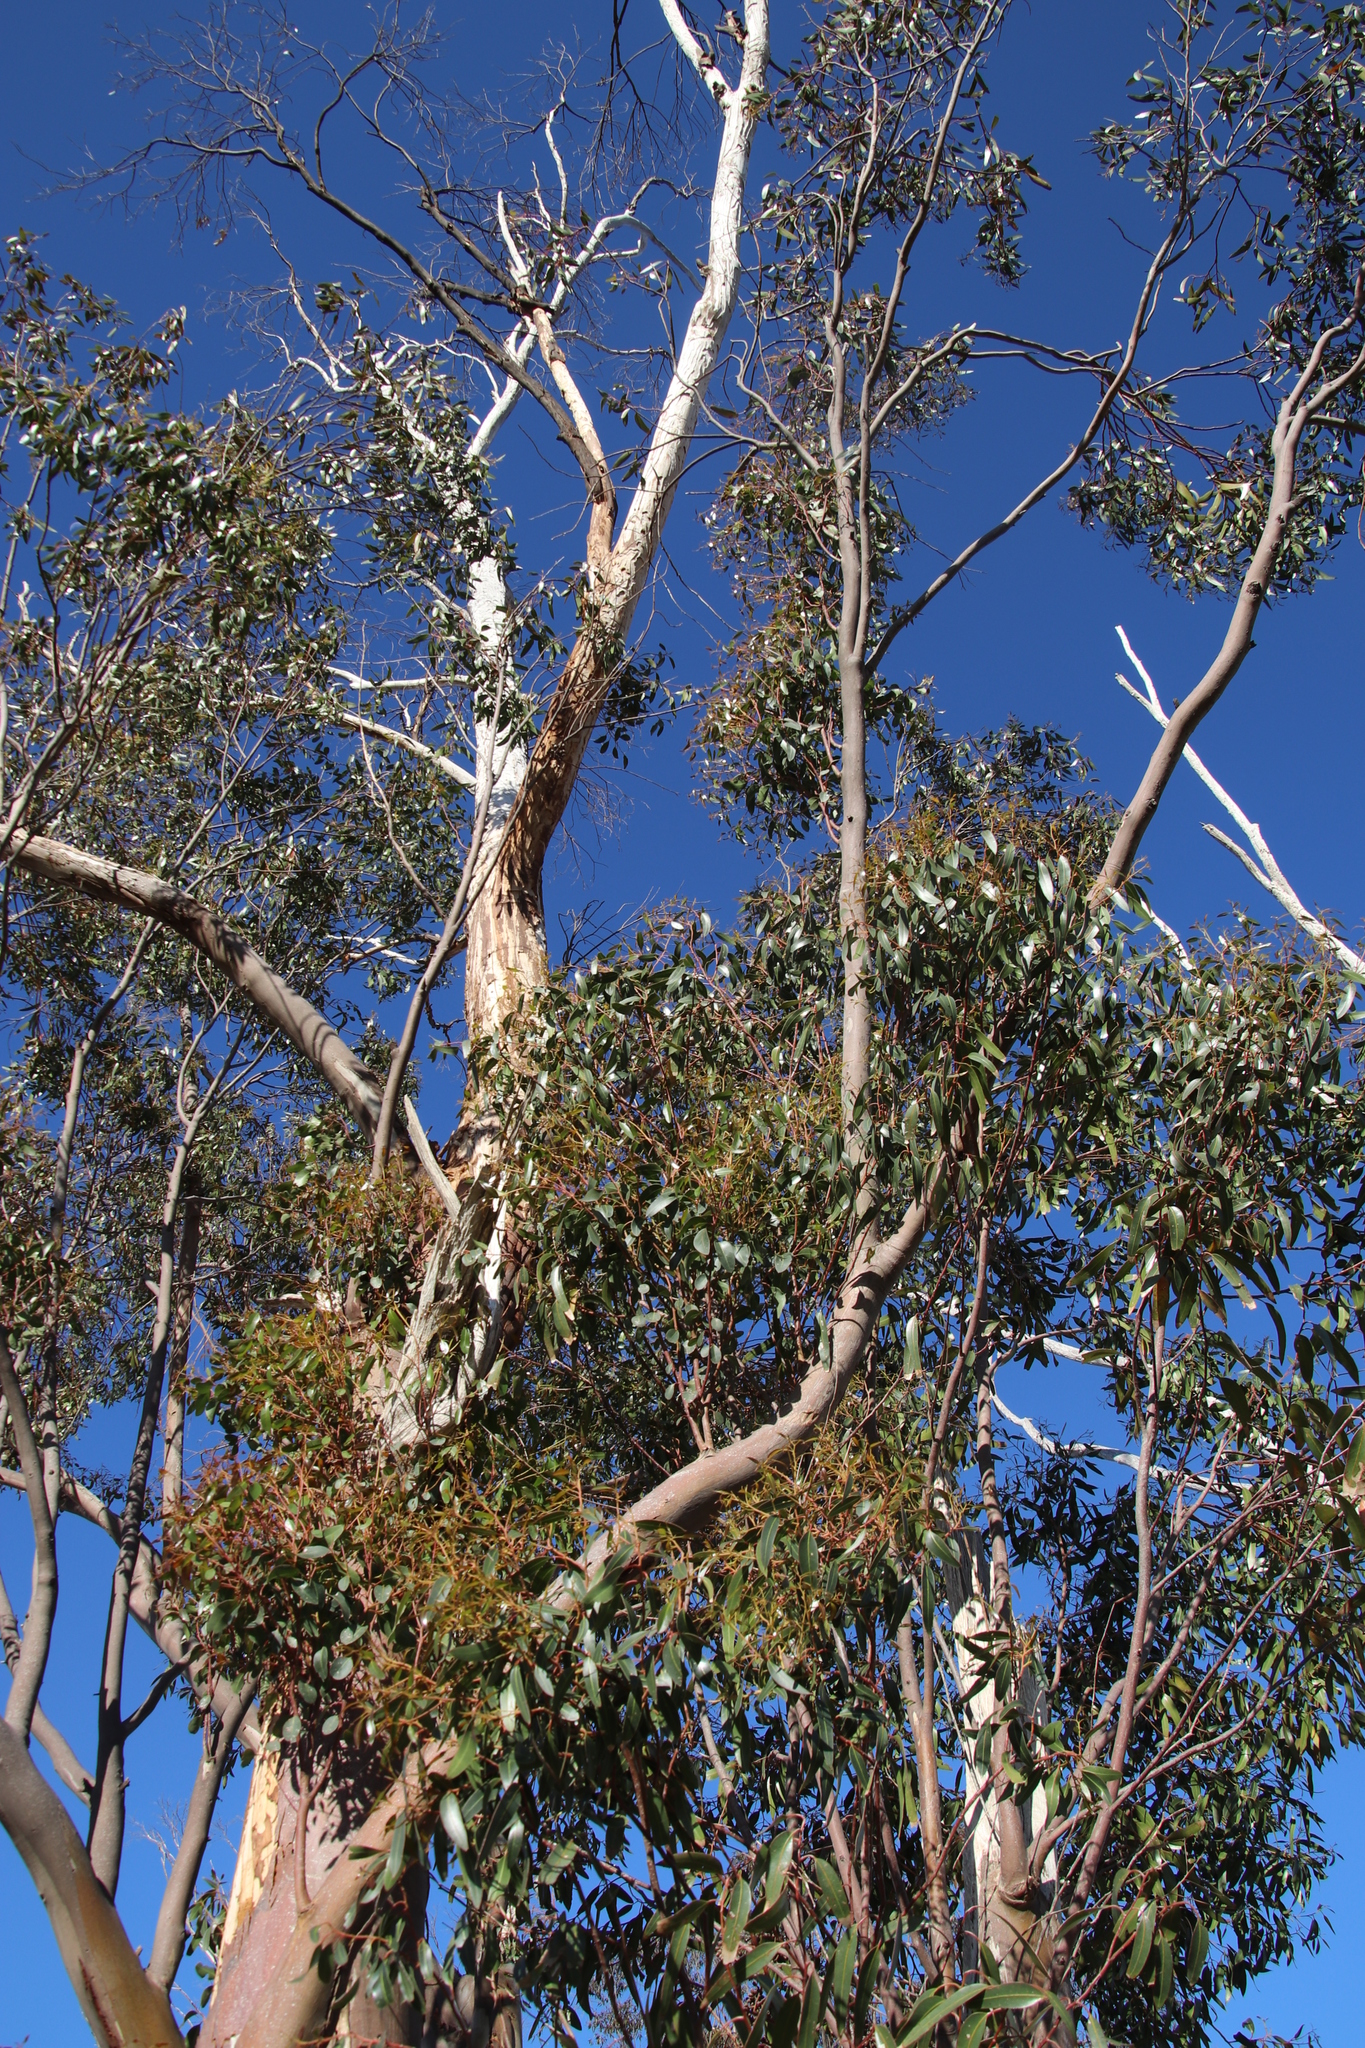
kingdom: Plantae
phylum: Tracheophyta
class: Magnoliopsida
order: Myrtales
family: Myrtaceae
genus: Eucalyptus
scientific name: Eucalyptus cladocalyx
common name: Sugargum
